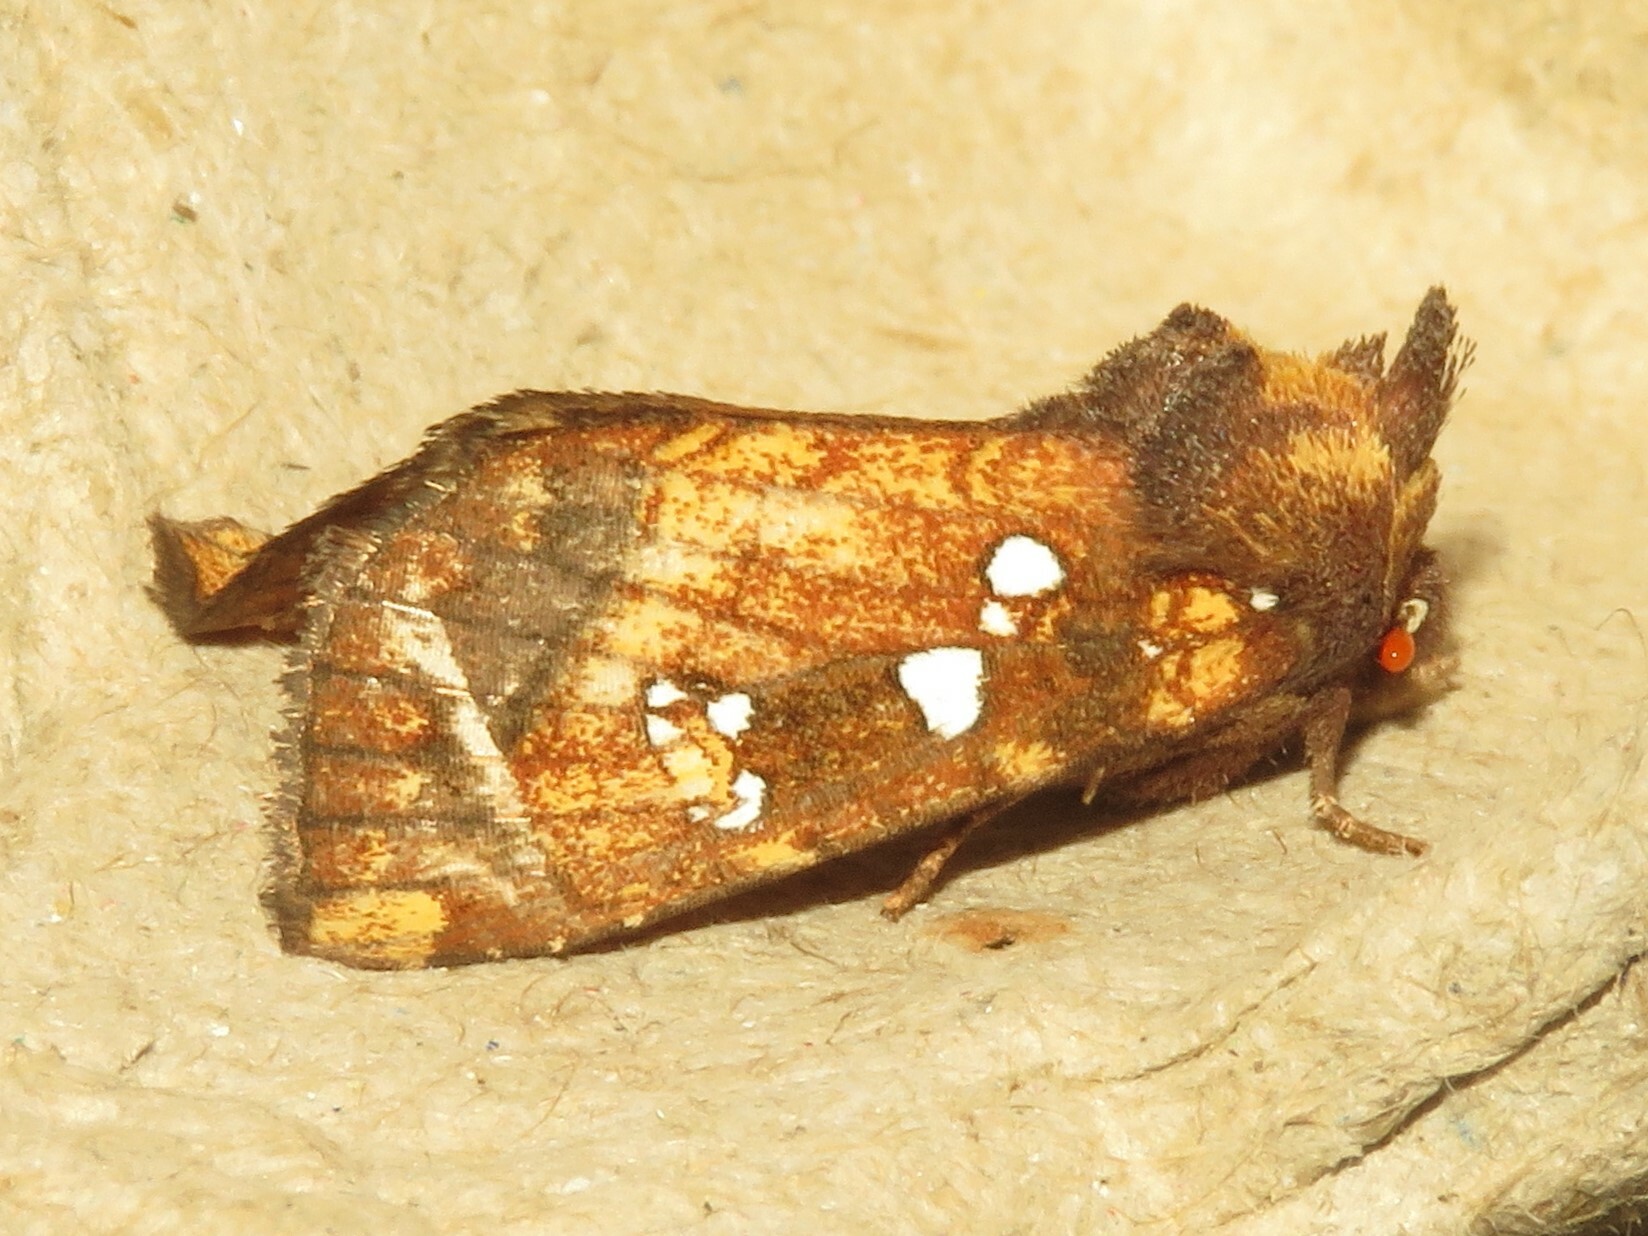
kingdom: Animalia
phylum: Arthropoda
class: Insecta
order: Lepidoptera
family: Noctuidae
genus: Papaipema
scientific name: Papaipema arctivorens
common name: Northern burdock borer moth
